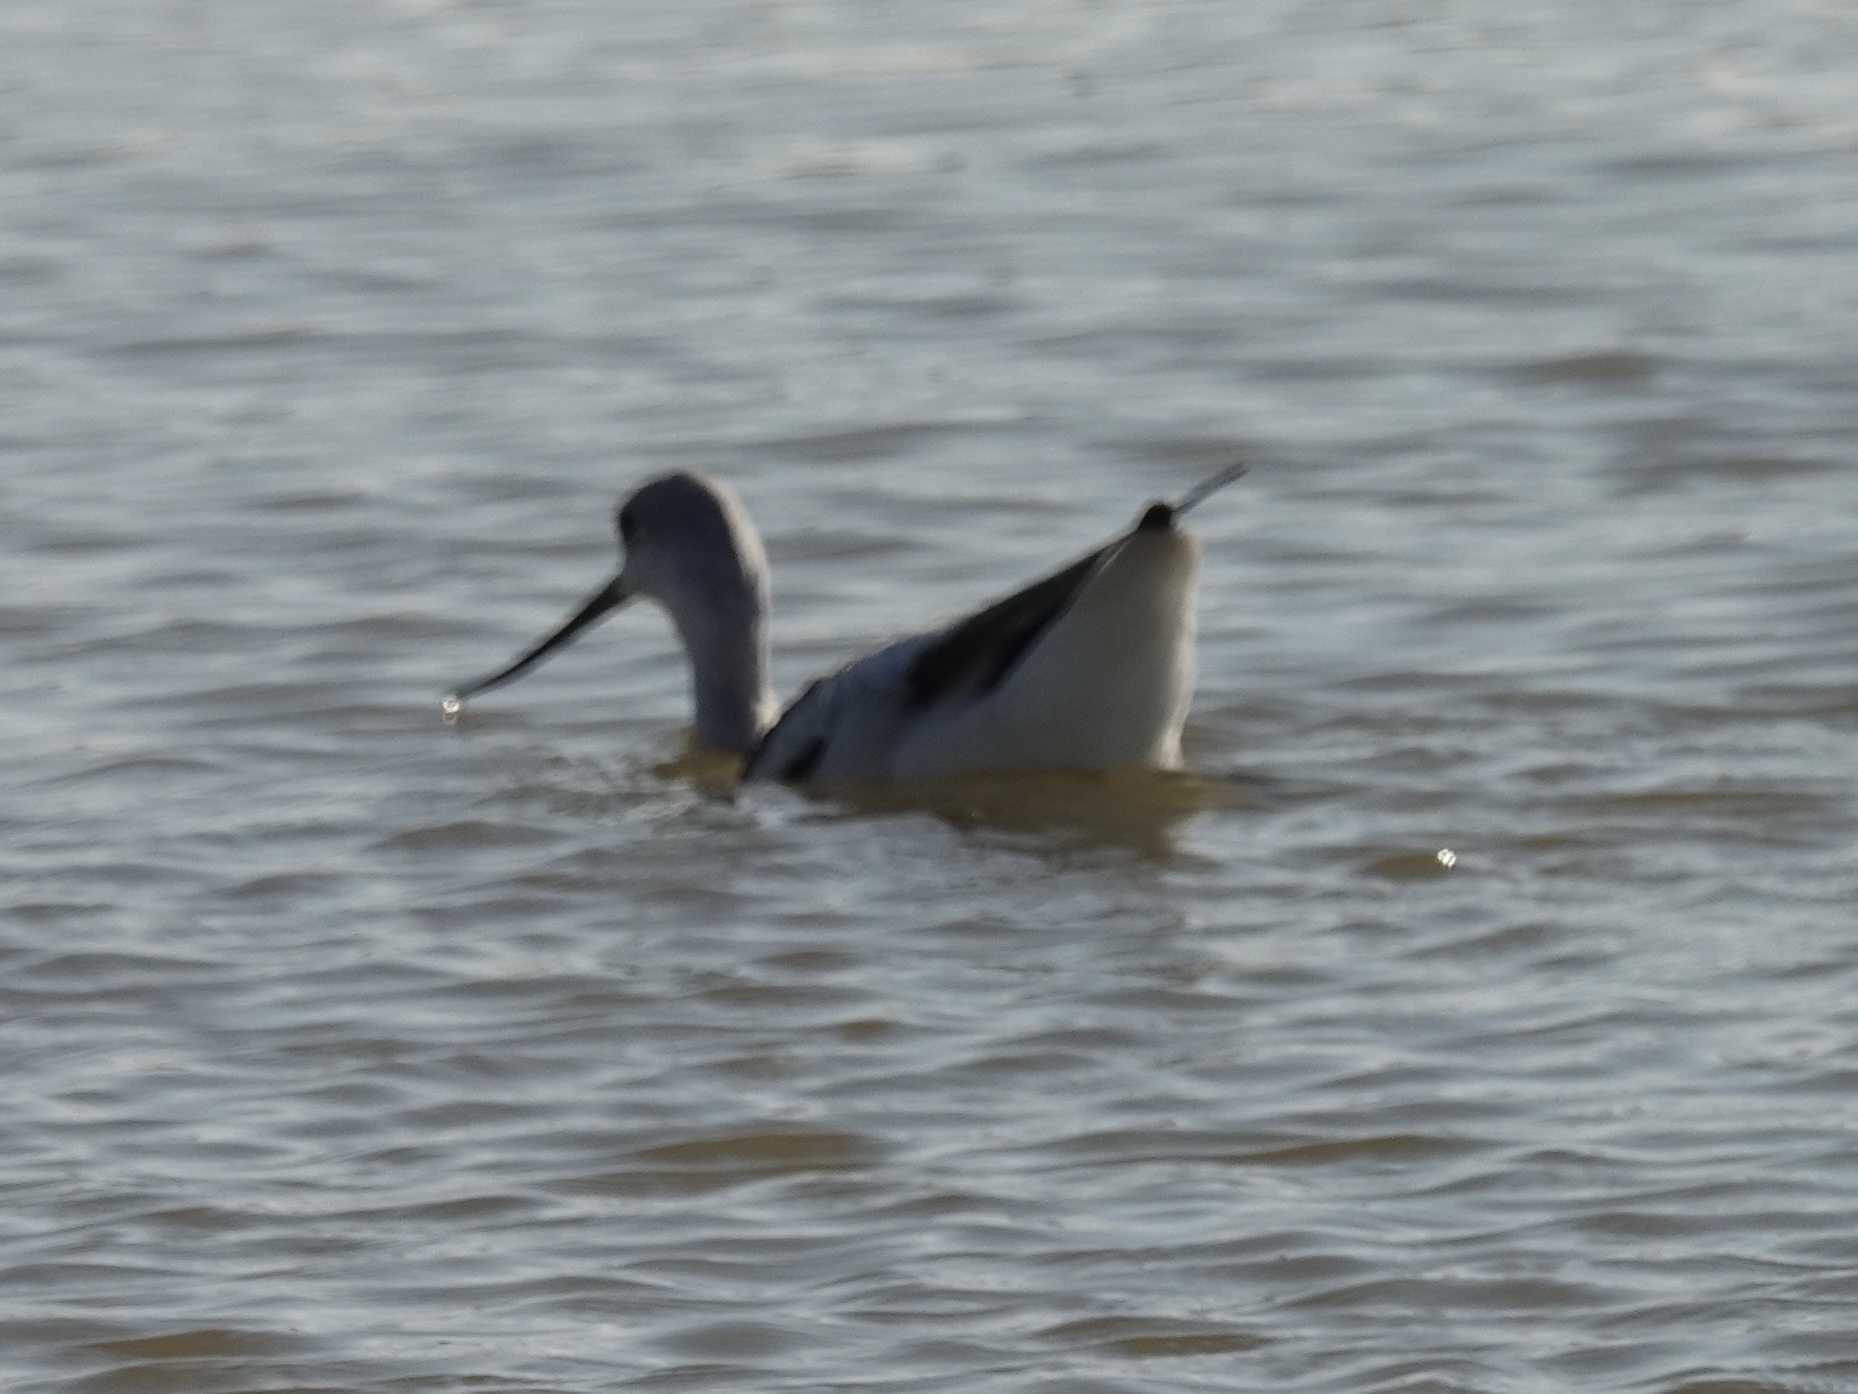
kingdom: Animalia
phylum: Chordata
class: Aves
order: Charadriiformes
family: Recurvirostridae
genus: Recurvirostra
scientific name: Recurvirostra americana
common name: American avocet
